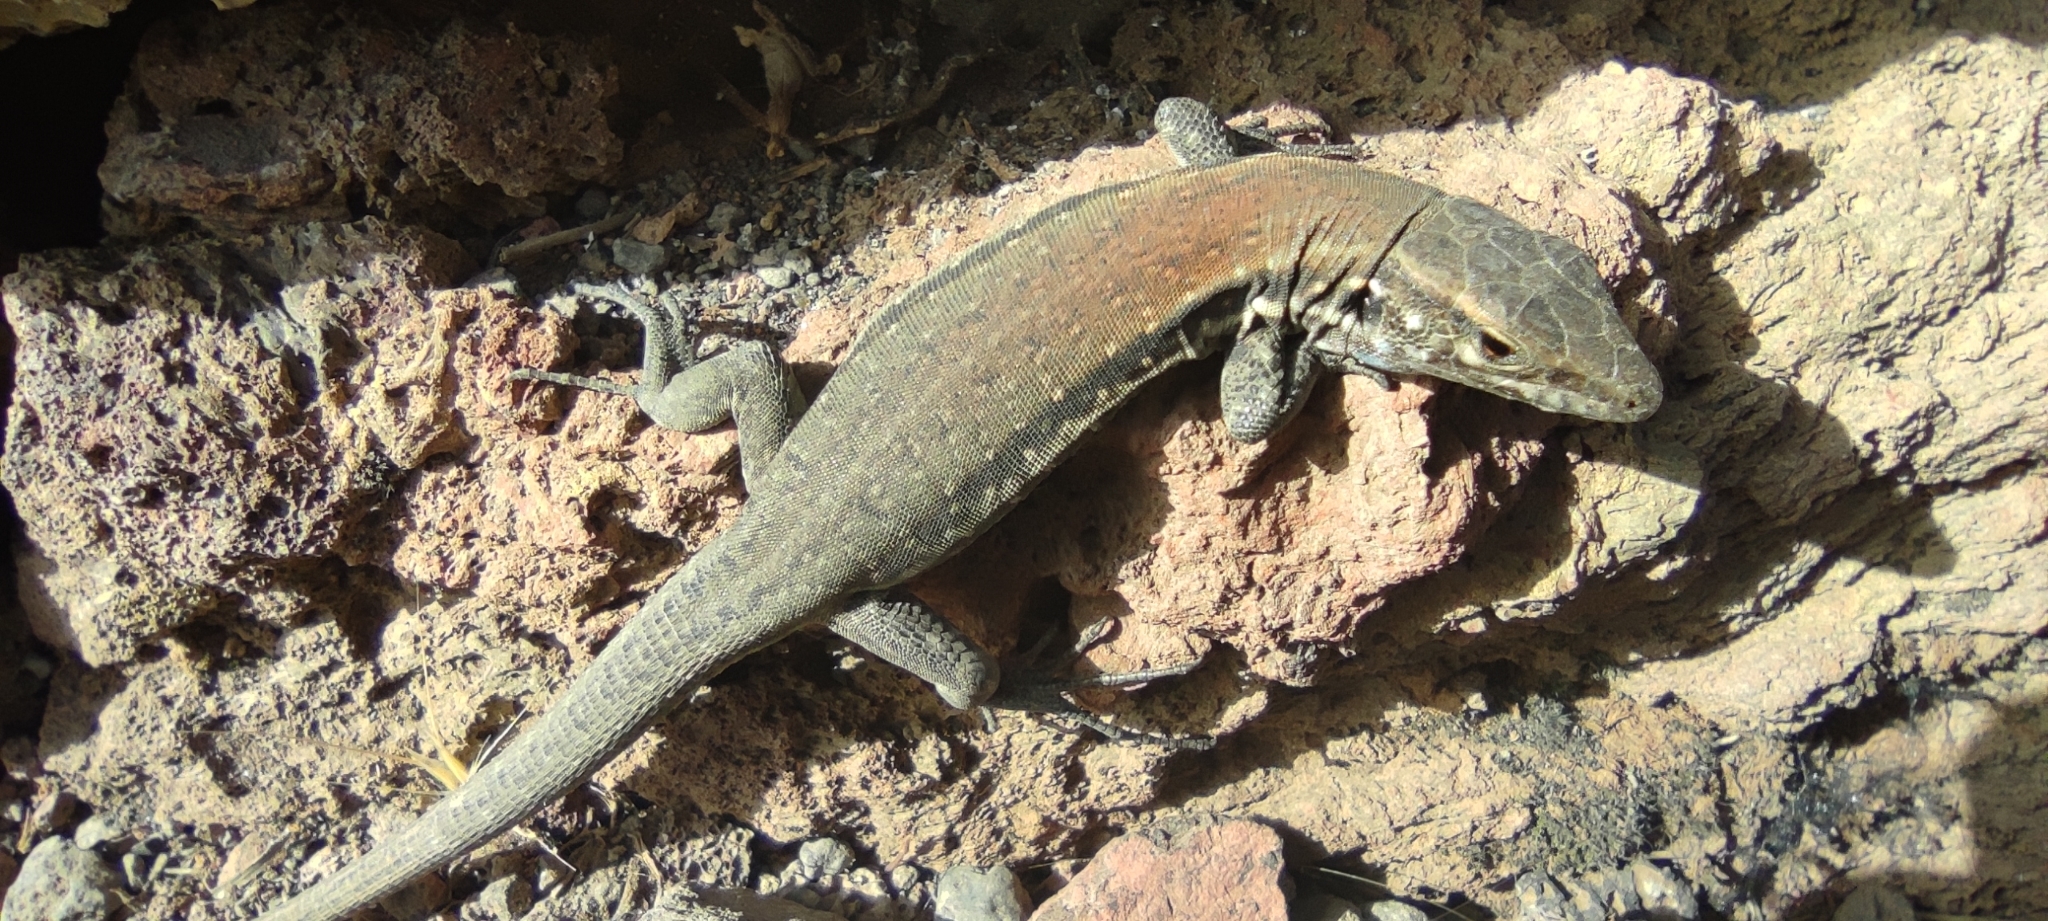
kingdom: Animalia
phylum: Chordata
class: Squamata
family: Lacertidae
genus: Gallotia
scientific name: Gallotia galloti
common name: Gallot's lizard
